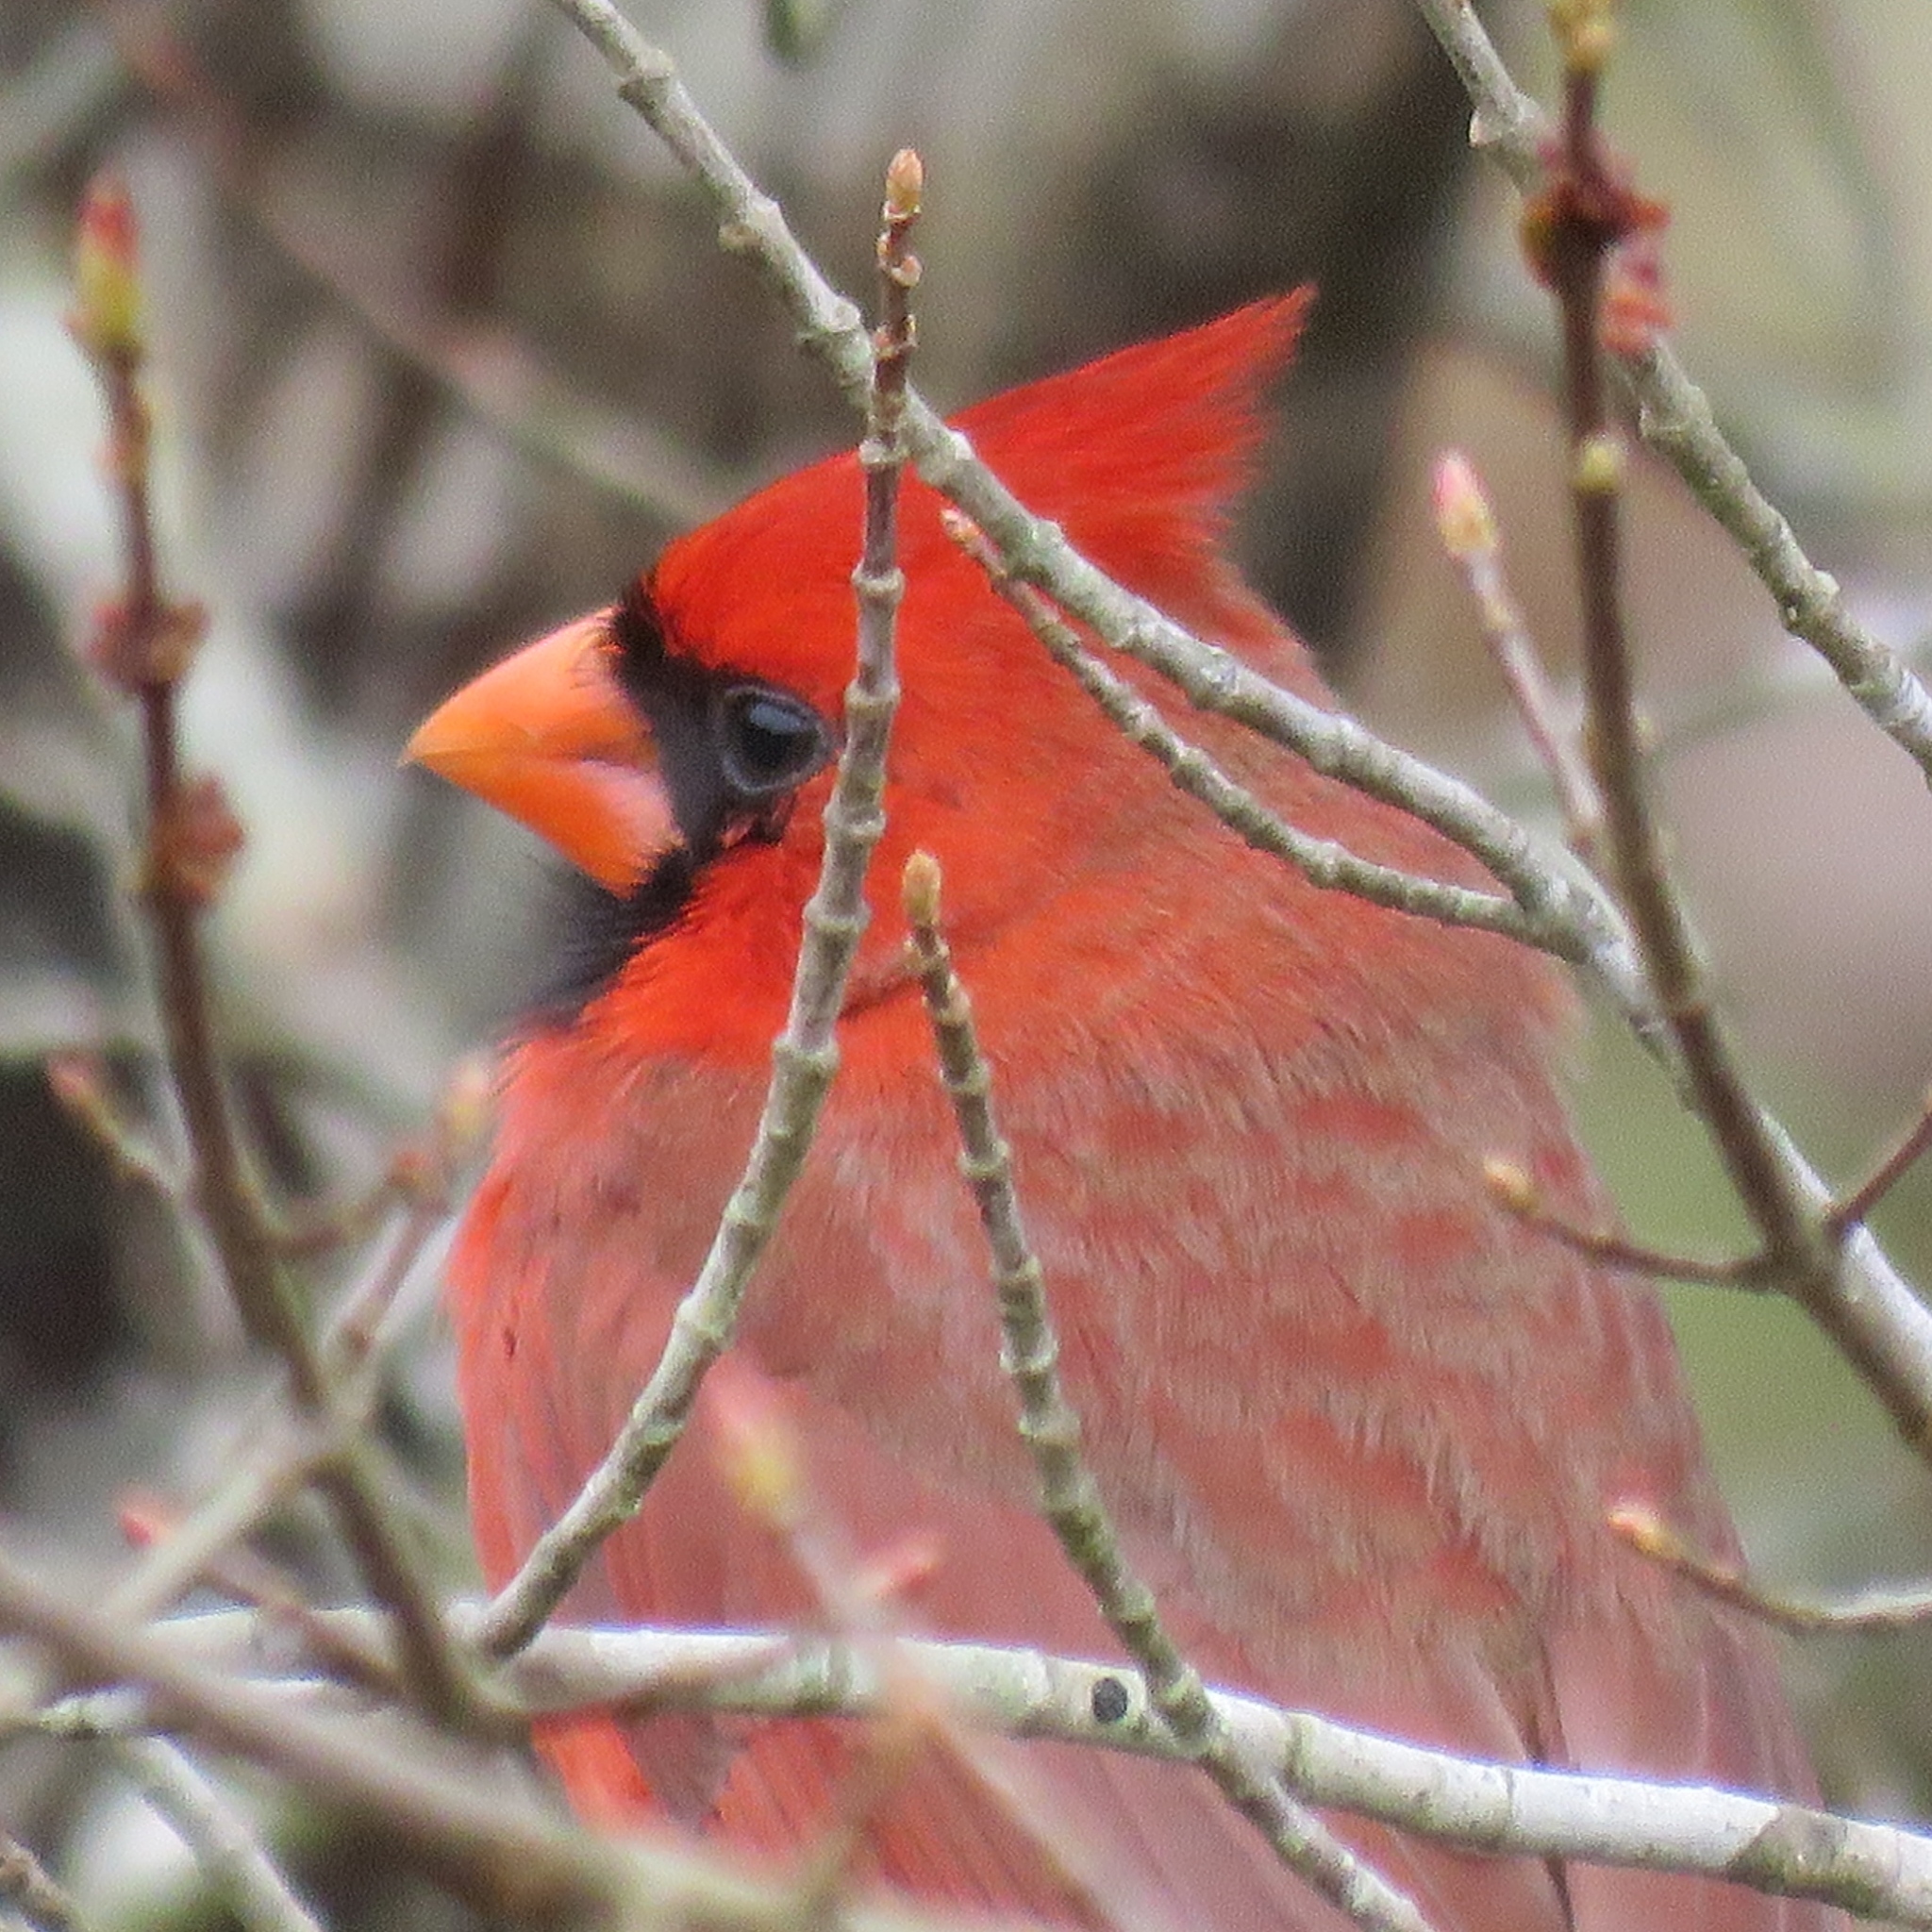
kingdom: Animalia
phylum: Chordata
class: Aves
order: Passeriformes
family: Cardinalidae
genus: Cardinalis
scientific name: Cardinalis cardinalis
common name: Northern cardinal
